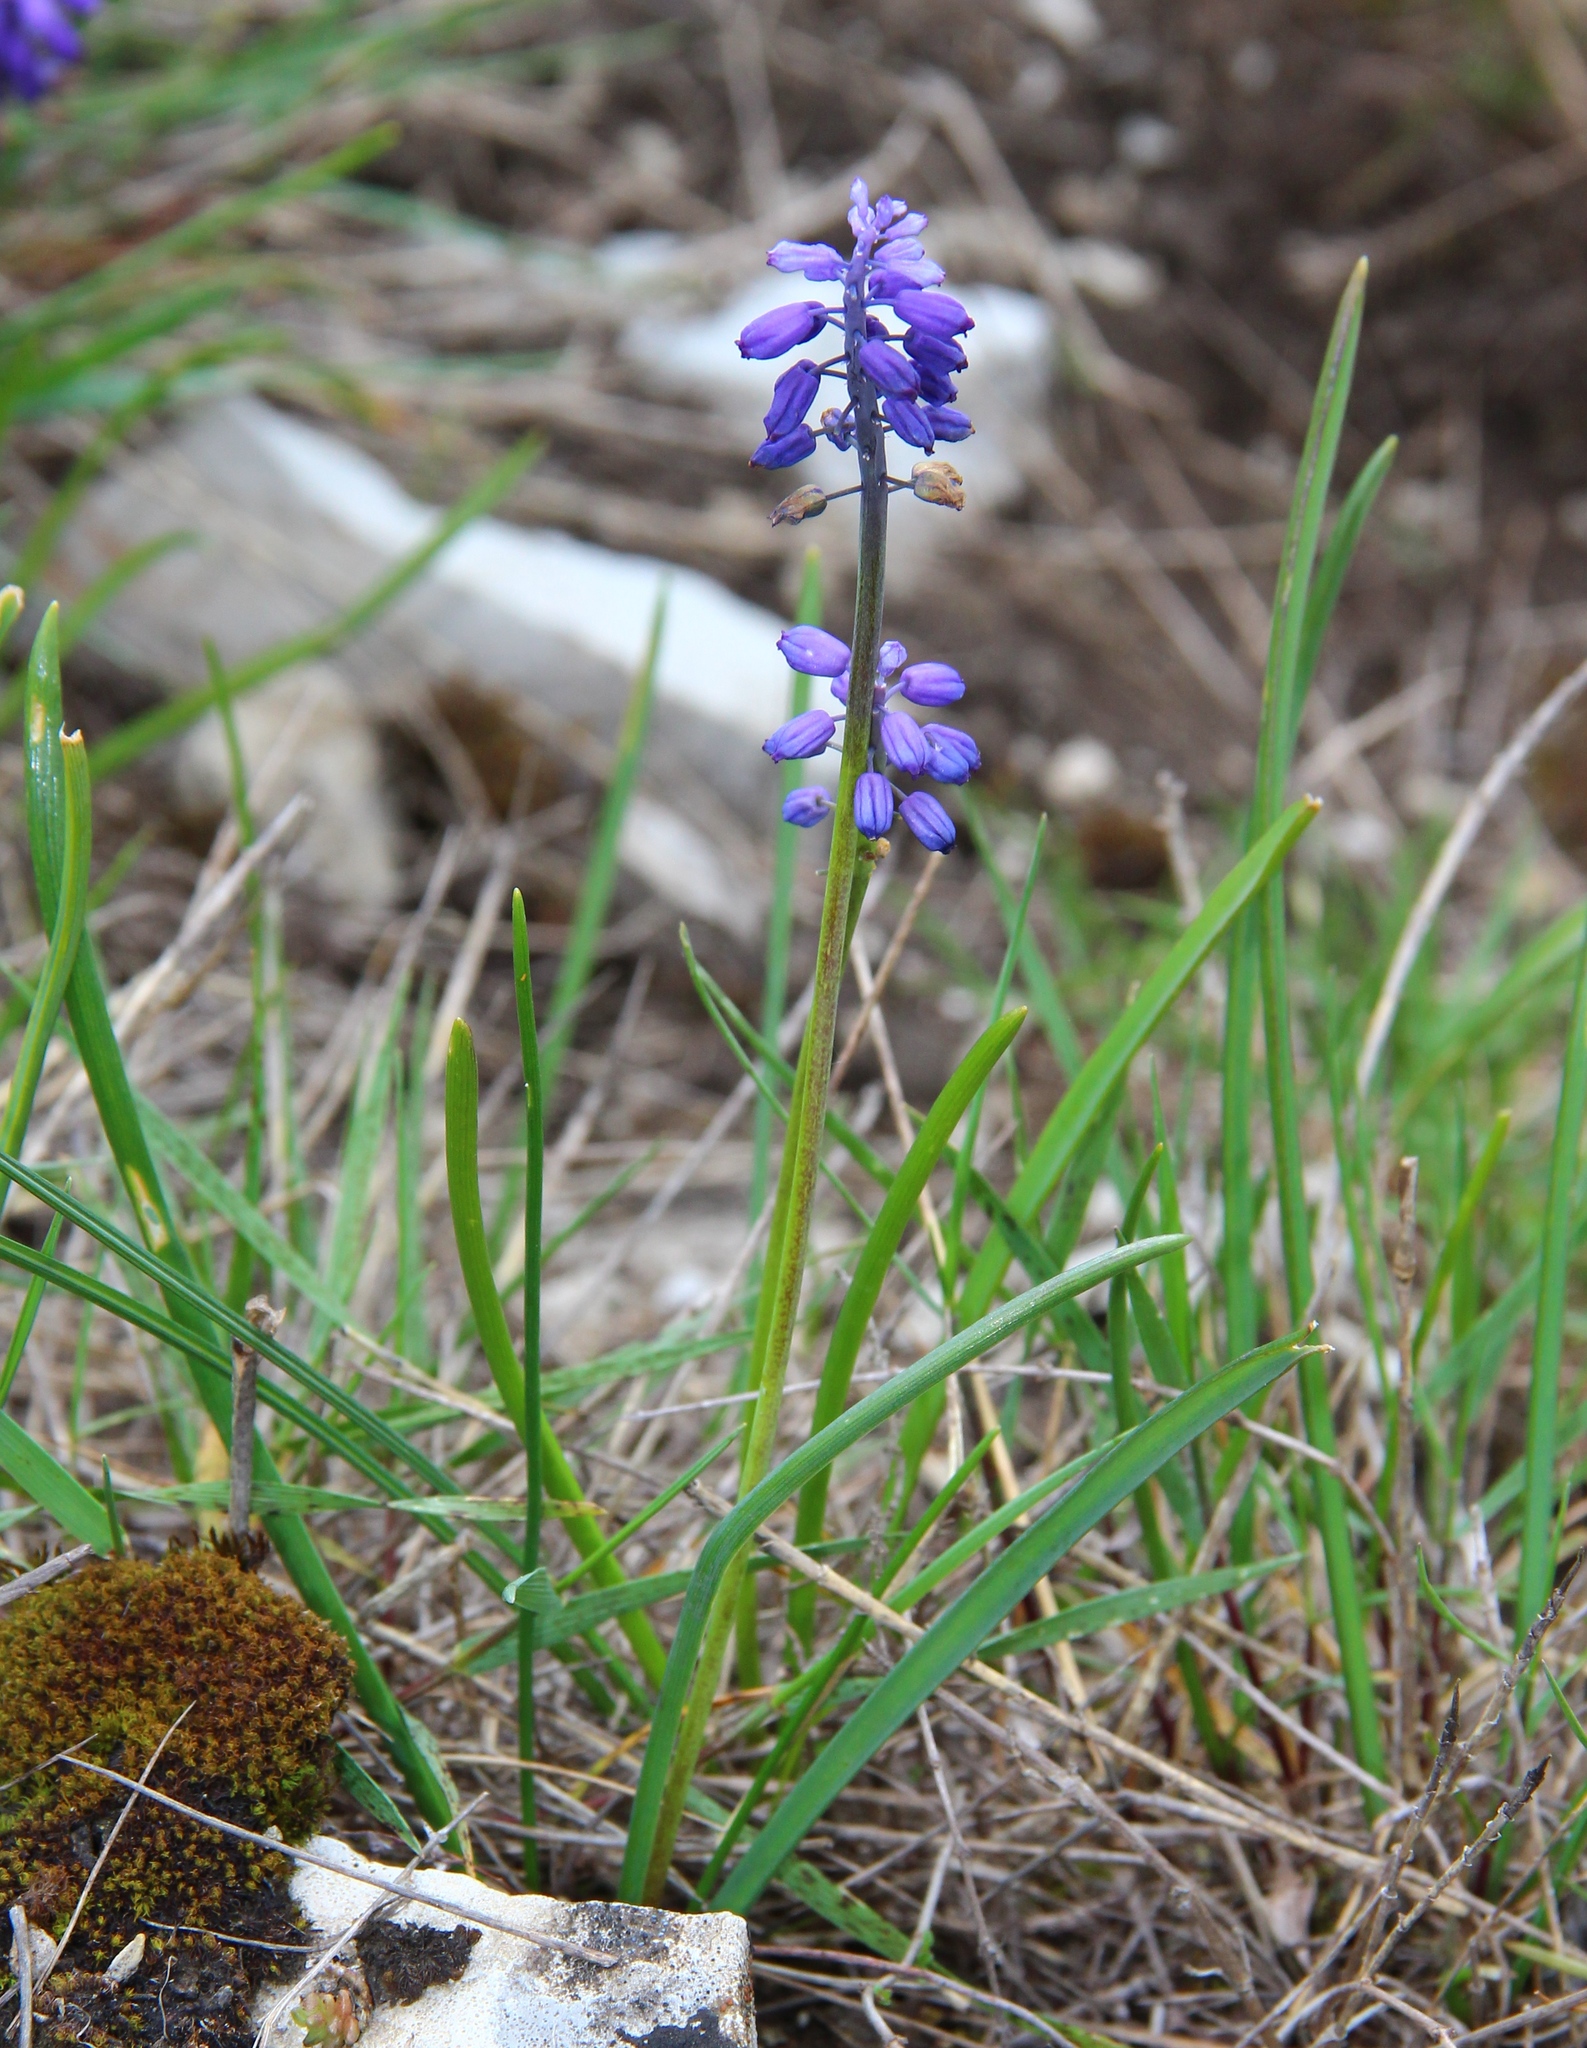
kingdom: Plantae
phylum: Tracheophyta
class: Liliopsida
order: Asparagales
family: Asparagaceae
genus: Muscari
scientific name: Muscari armeniacum
